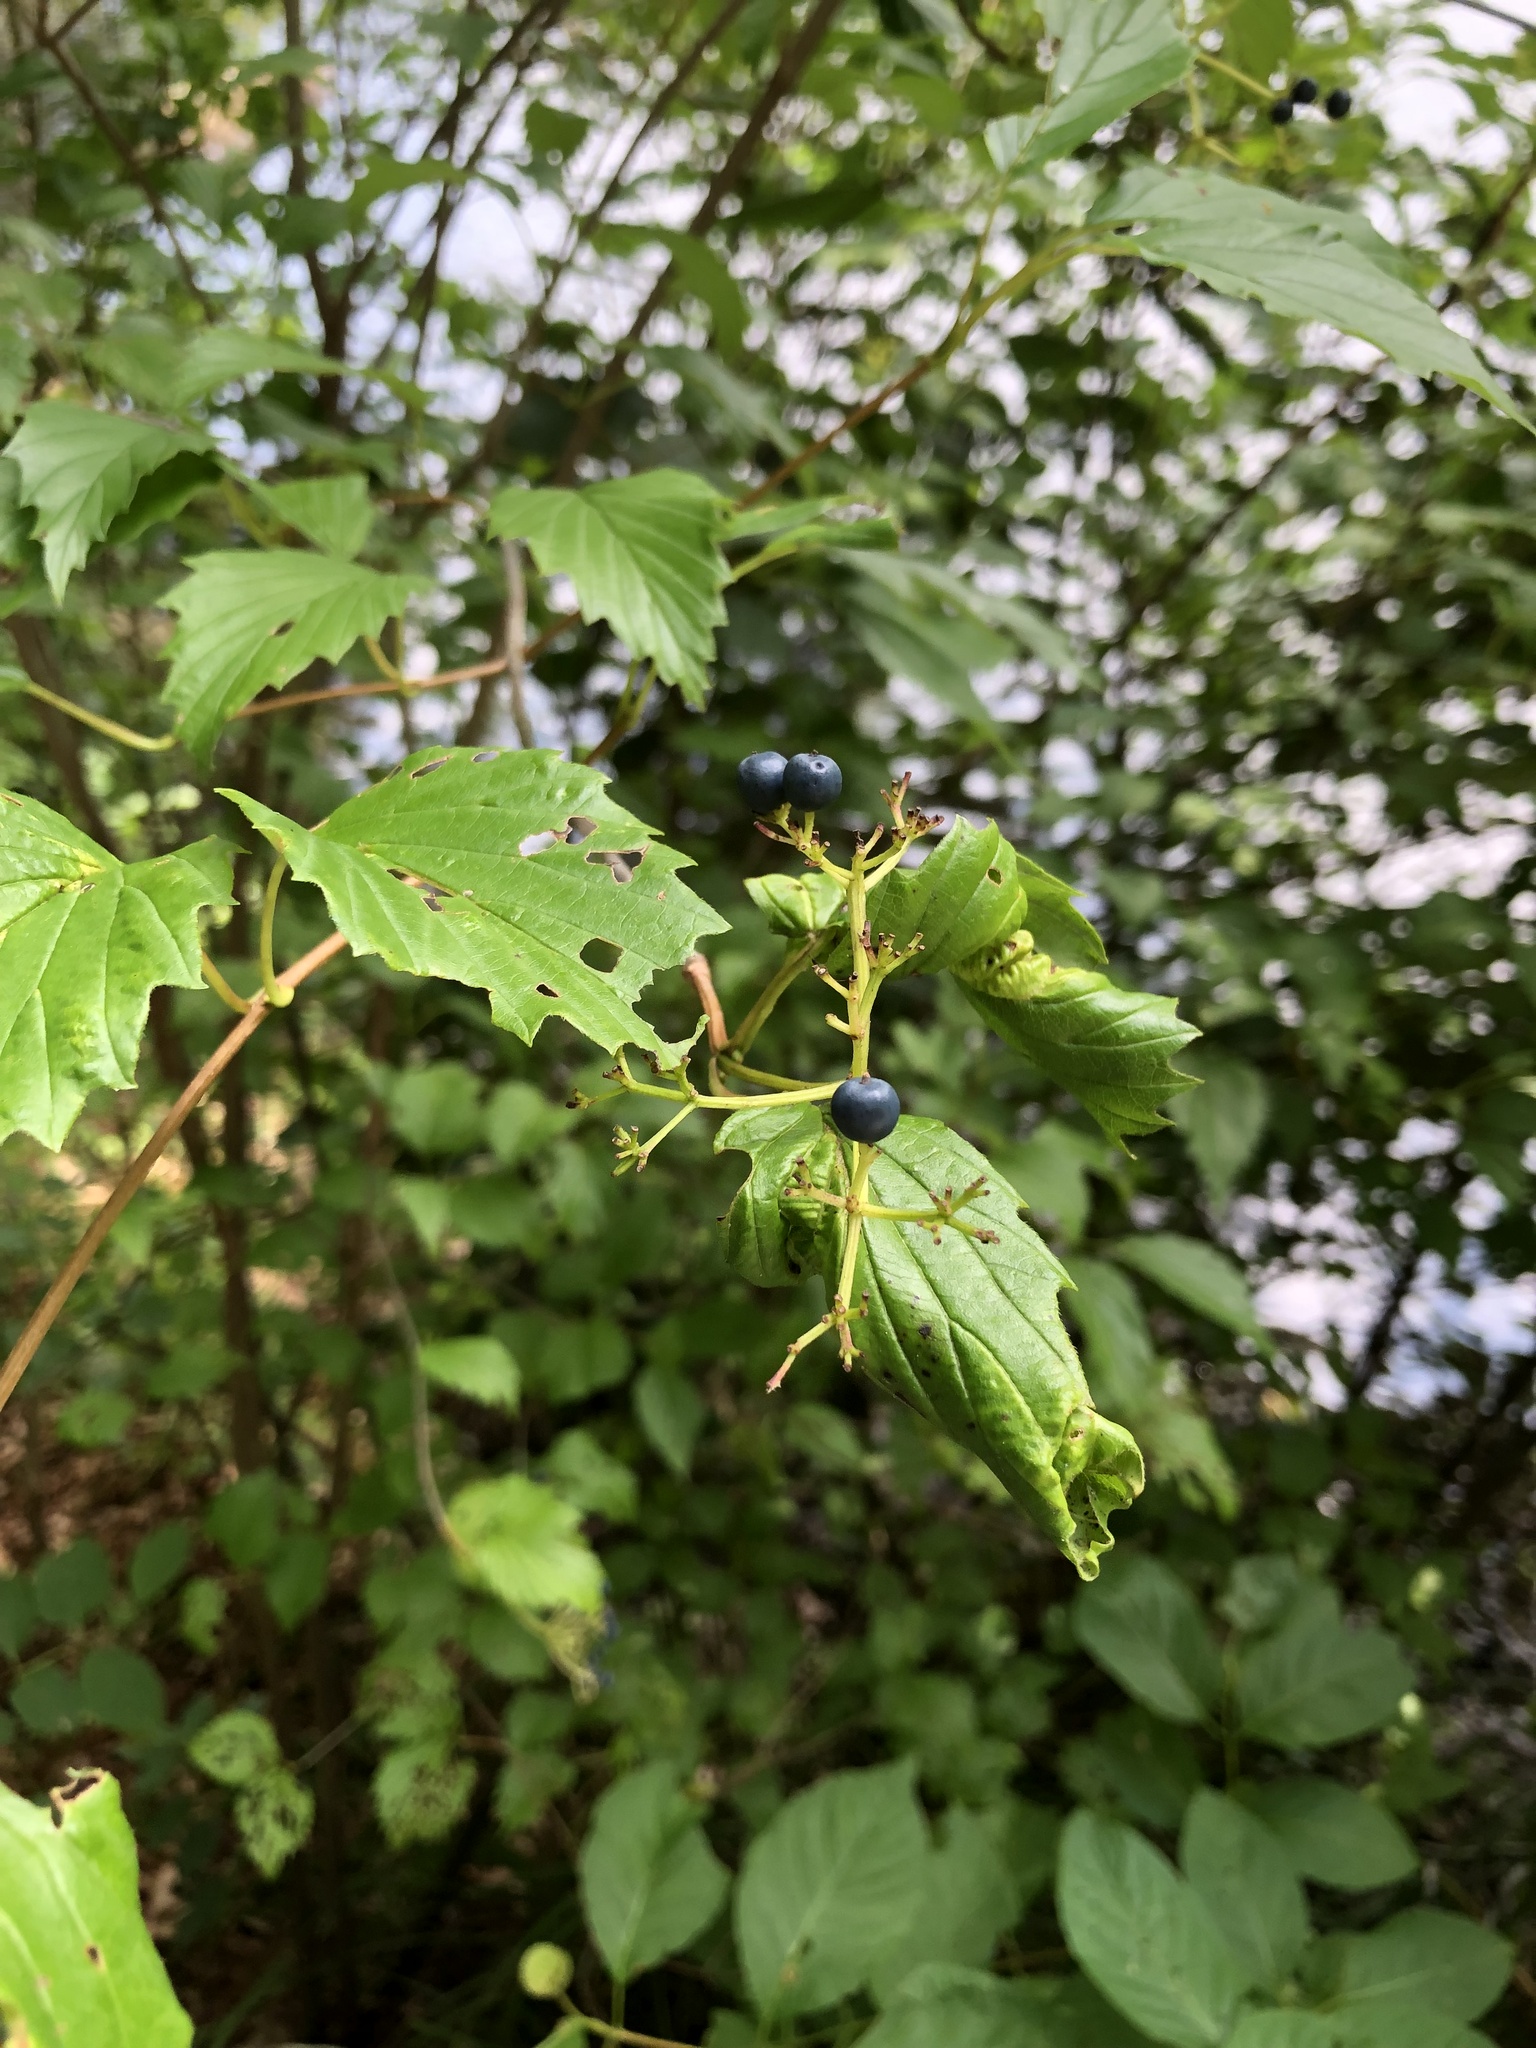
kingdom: Plantae
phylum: Tracheophyta
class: Magnoliopsida
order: Dipsacales
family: Viburnaceae
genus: Viburnum
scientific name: Viburnum dentatum
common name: Arrow-wood
